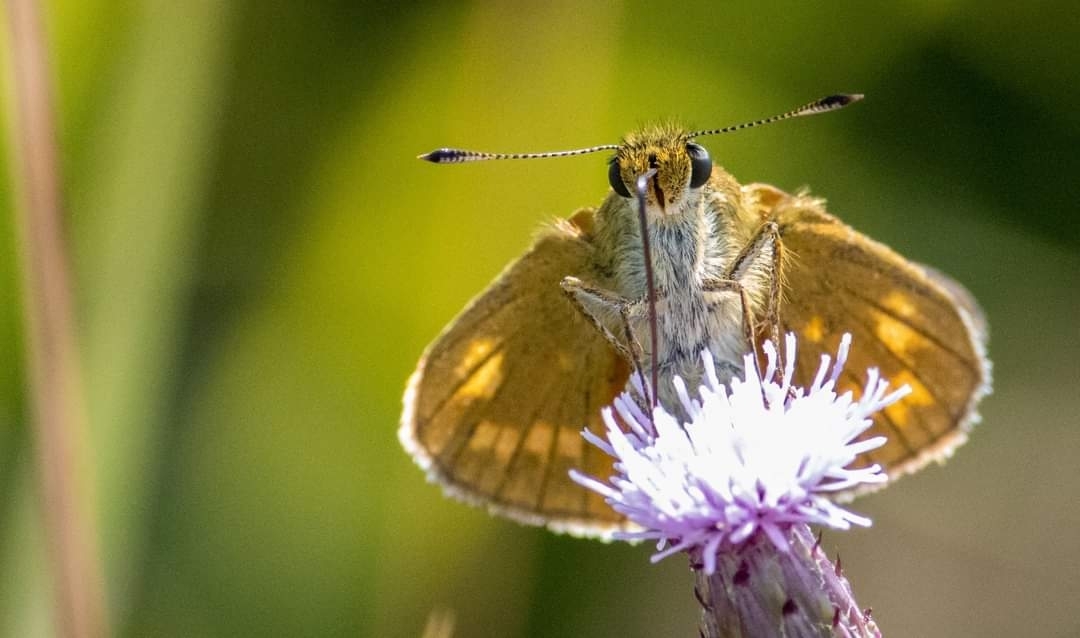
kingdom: Animalia
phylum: Arthropoda
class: Insecta
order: Lepidoptera
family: Hesperiidae
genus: Ochlodes
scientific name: Ochlodes venata
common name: Large skipper
